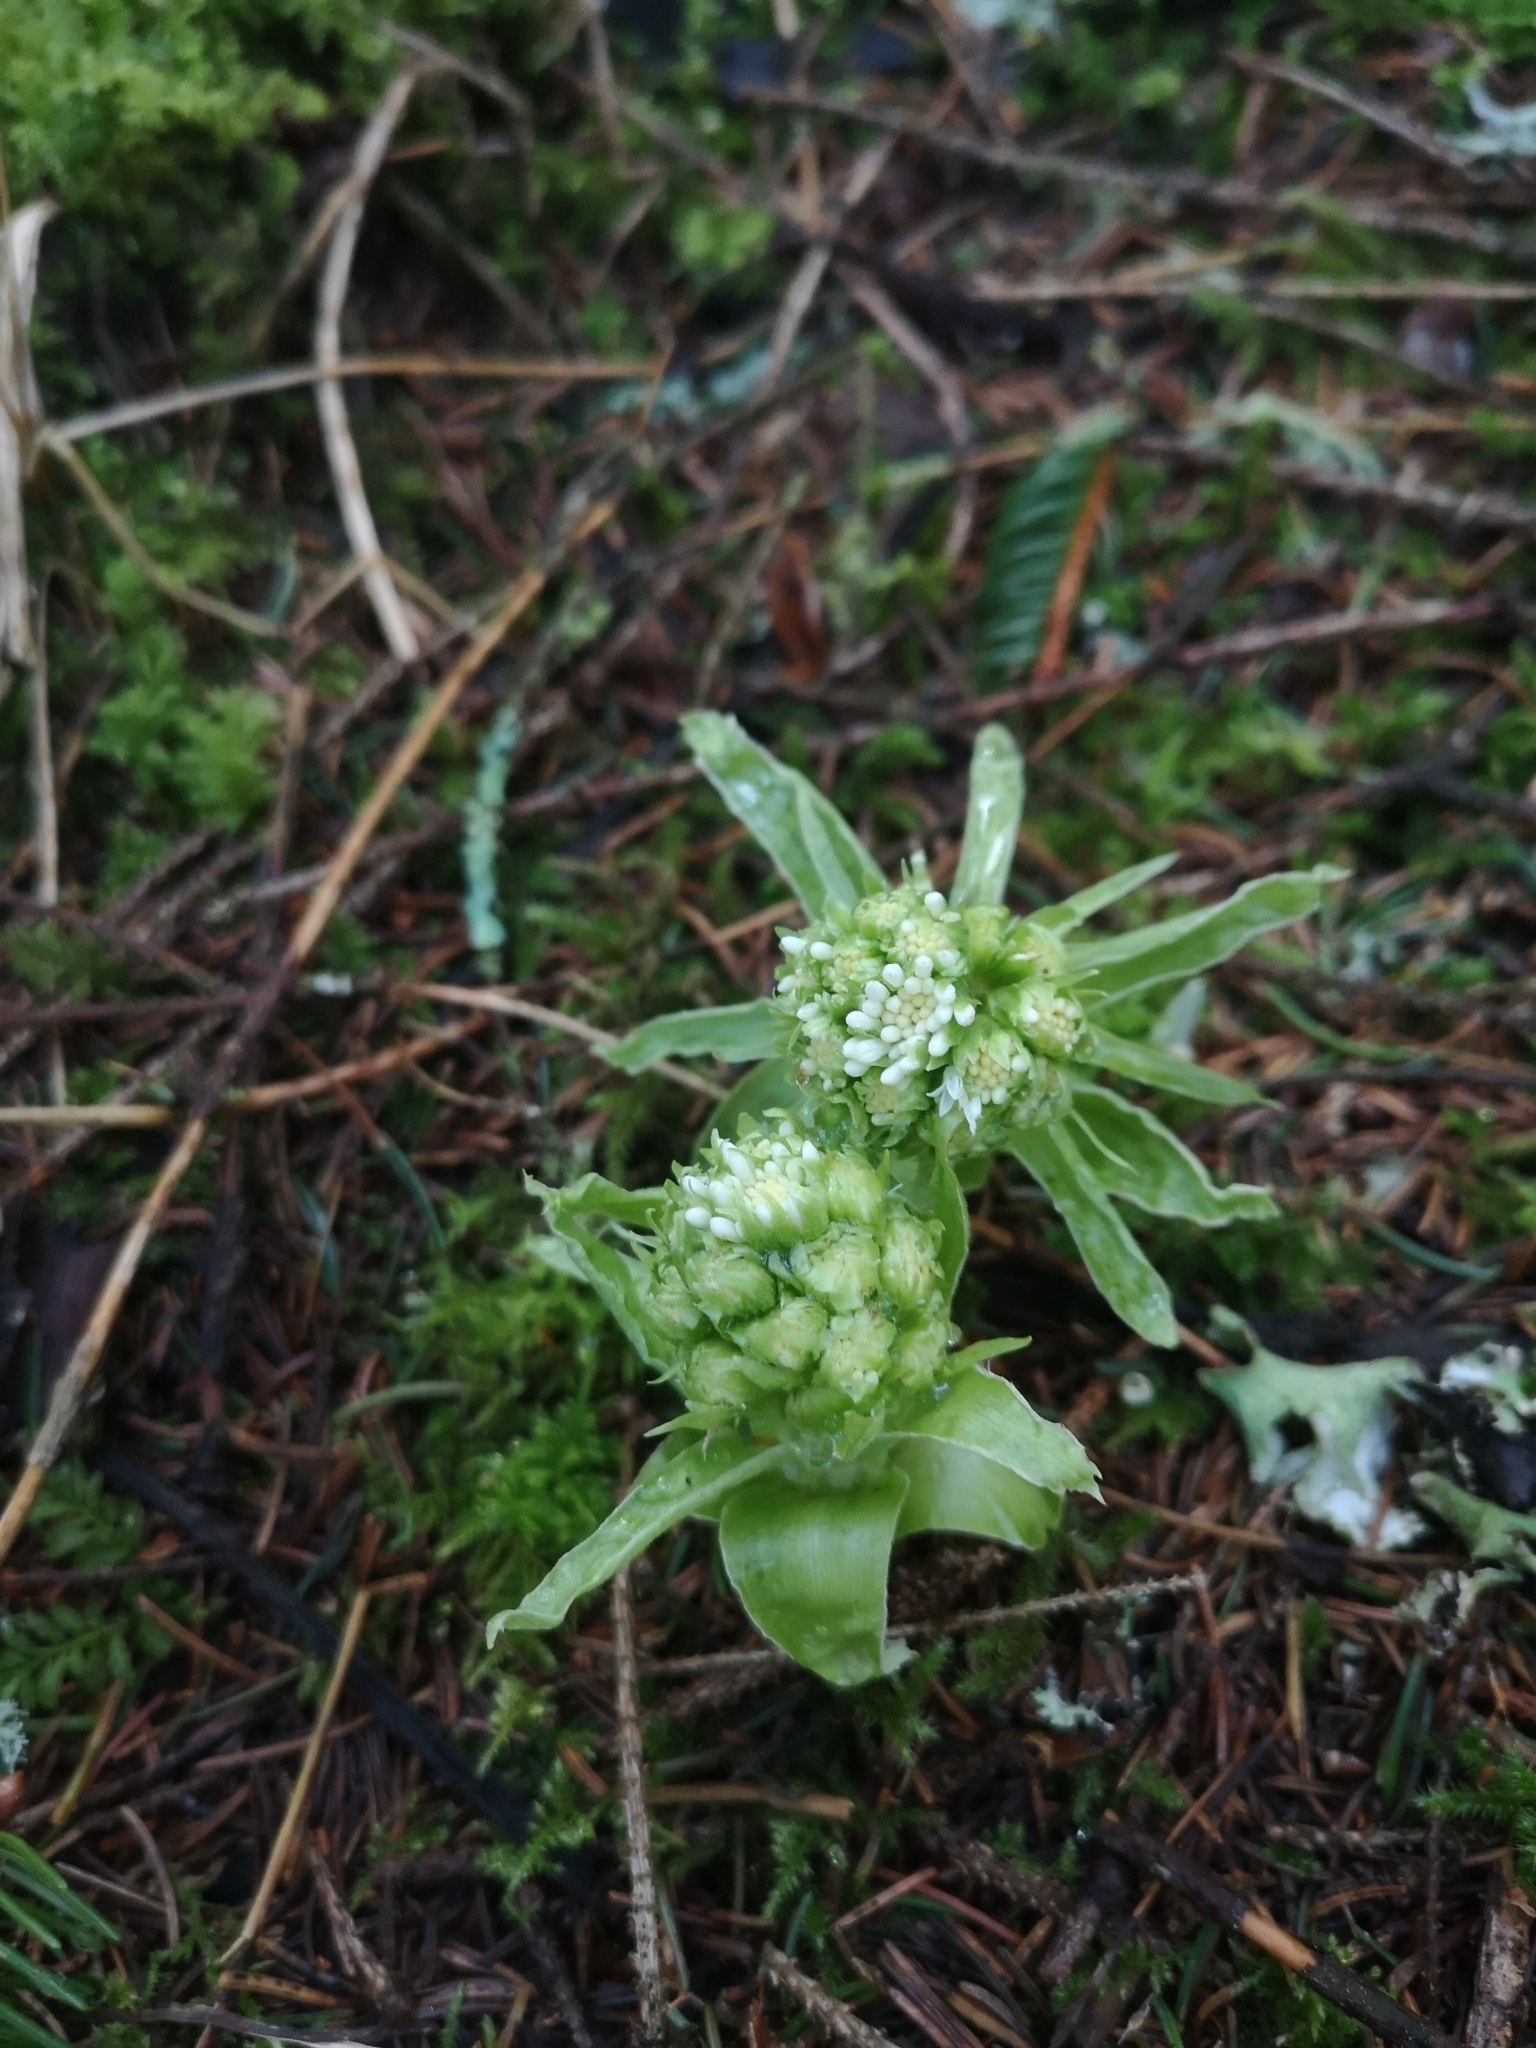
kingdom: Plantae
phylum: Tracheophyta
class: Magnoliopsida
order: Asterales
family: Asteraceae
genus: Petasites
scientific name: Petasites albus
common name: White butterbur
